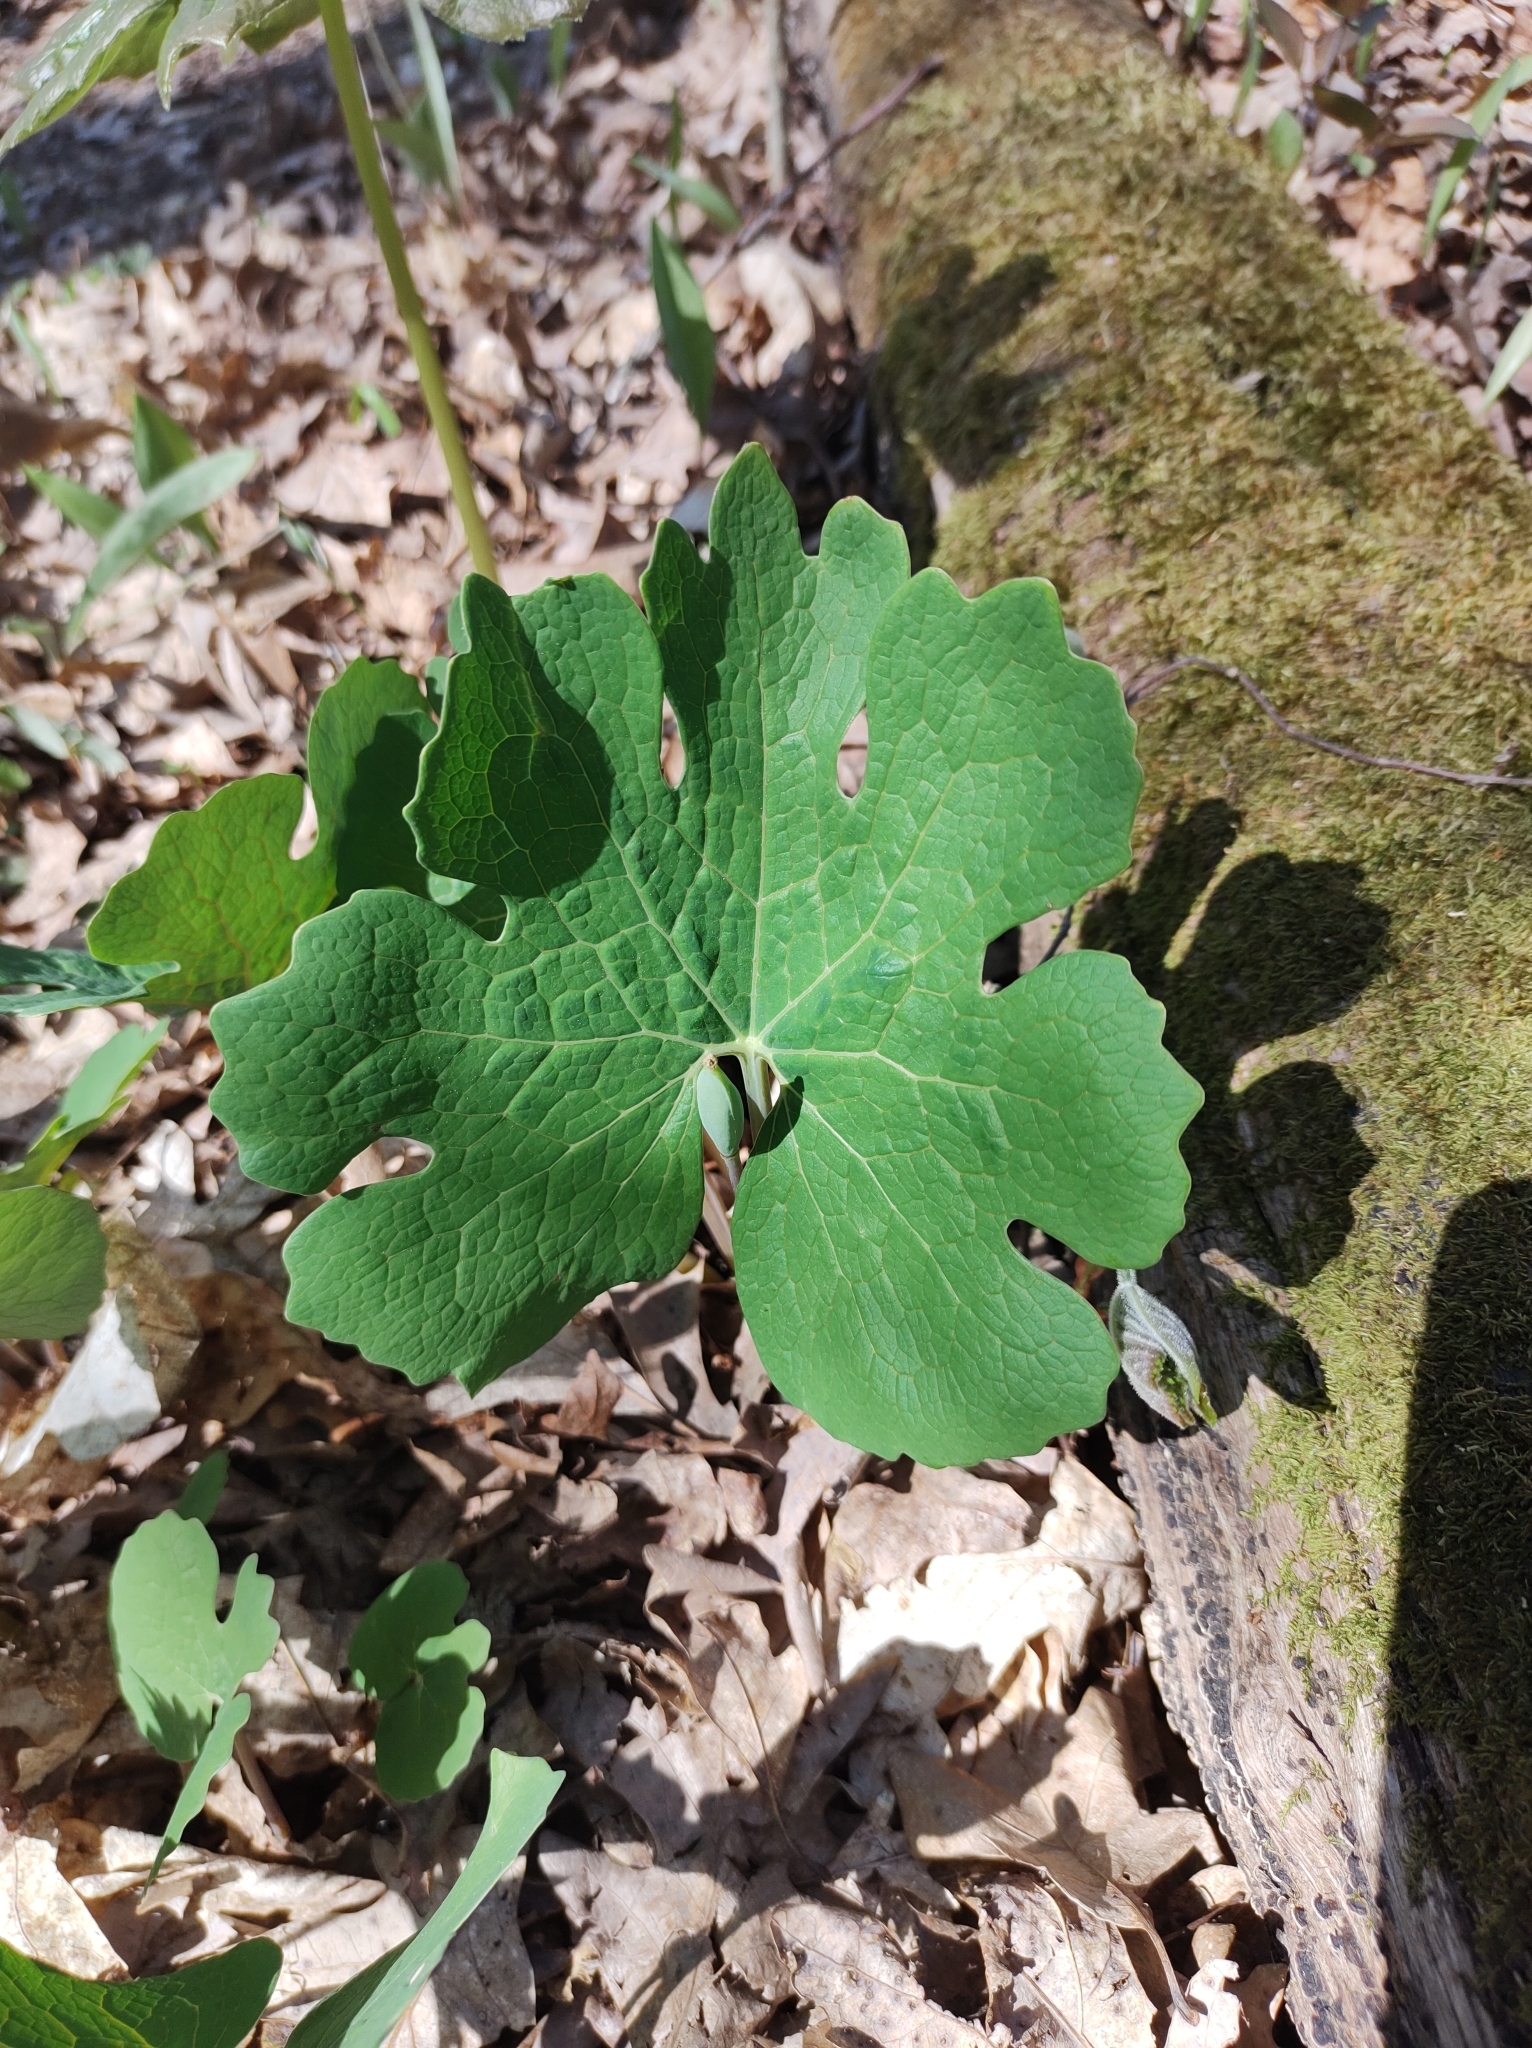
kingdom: Plantae
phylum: Tracheophyta
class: Magnoliopsida
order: Ranunculales
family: Papaveraceae
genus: Sanguinaria
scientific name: Sanguinaria canadensis
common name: Bloodroot
